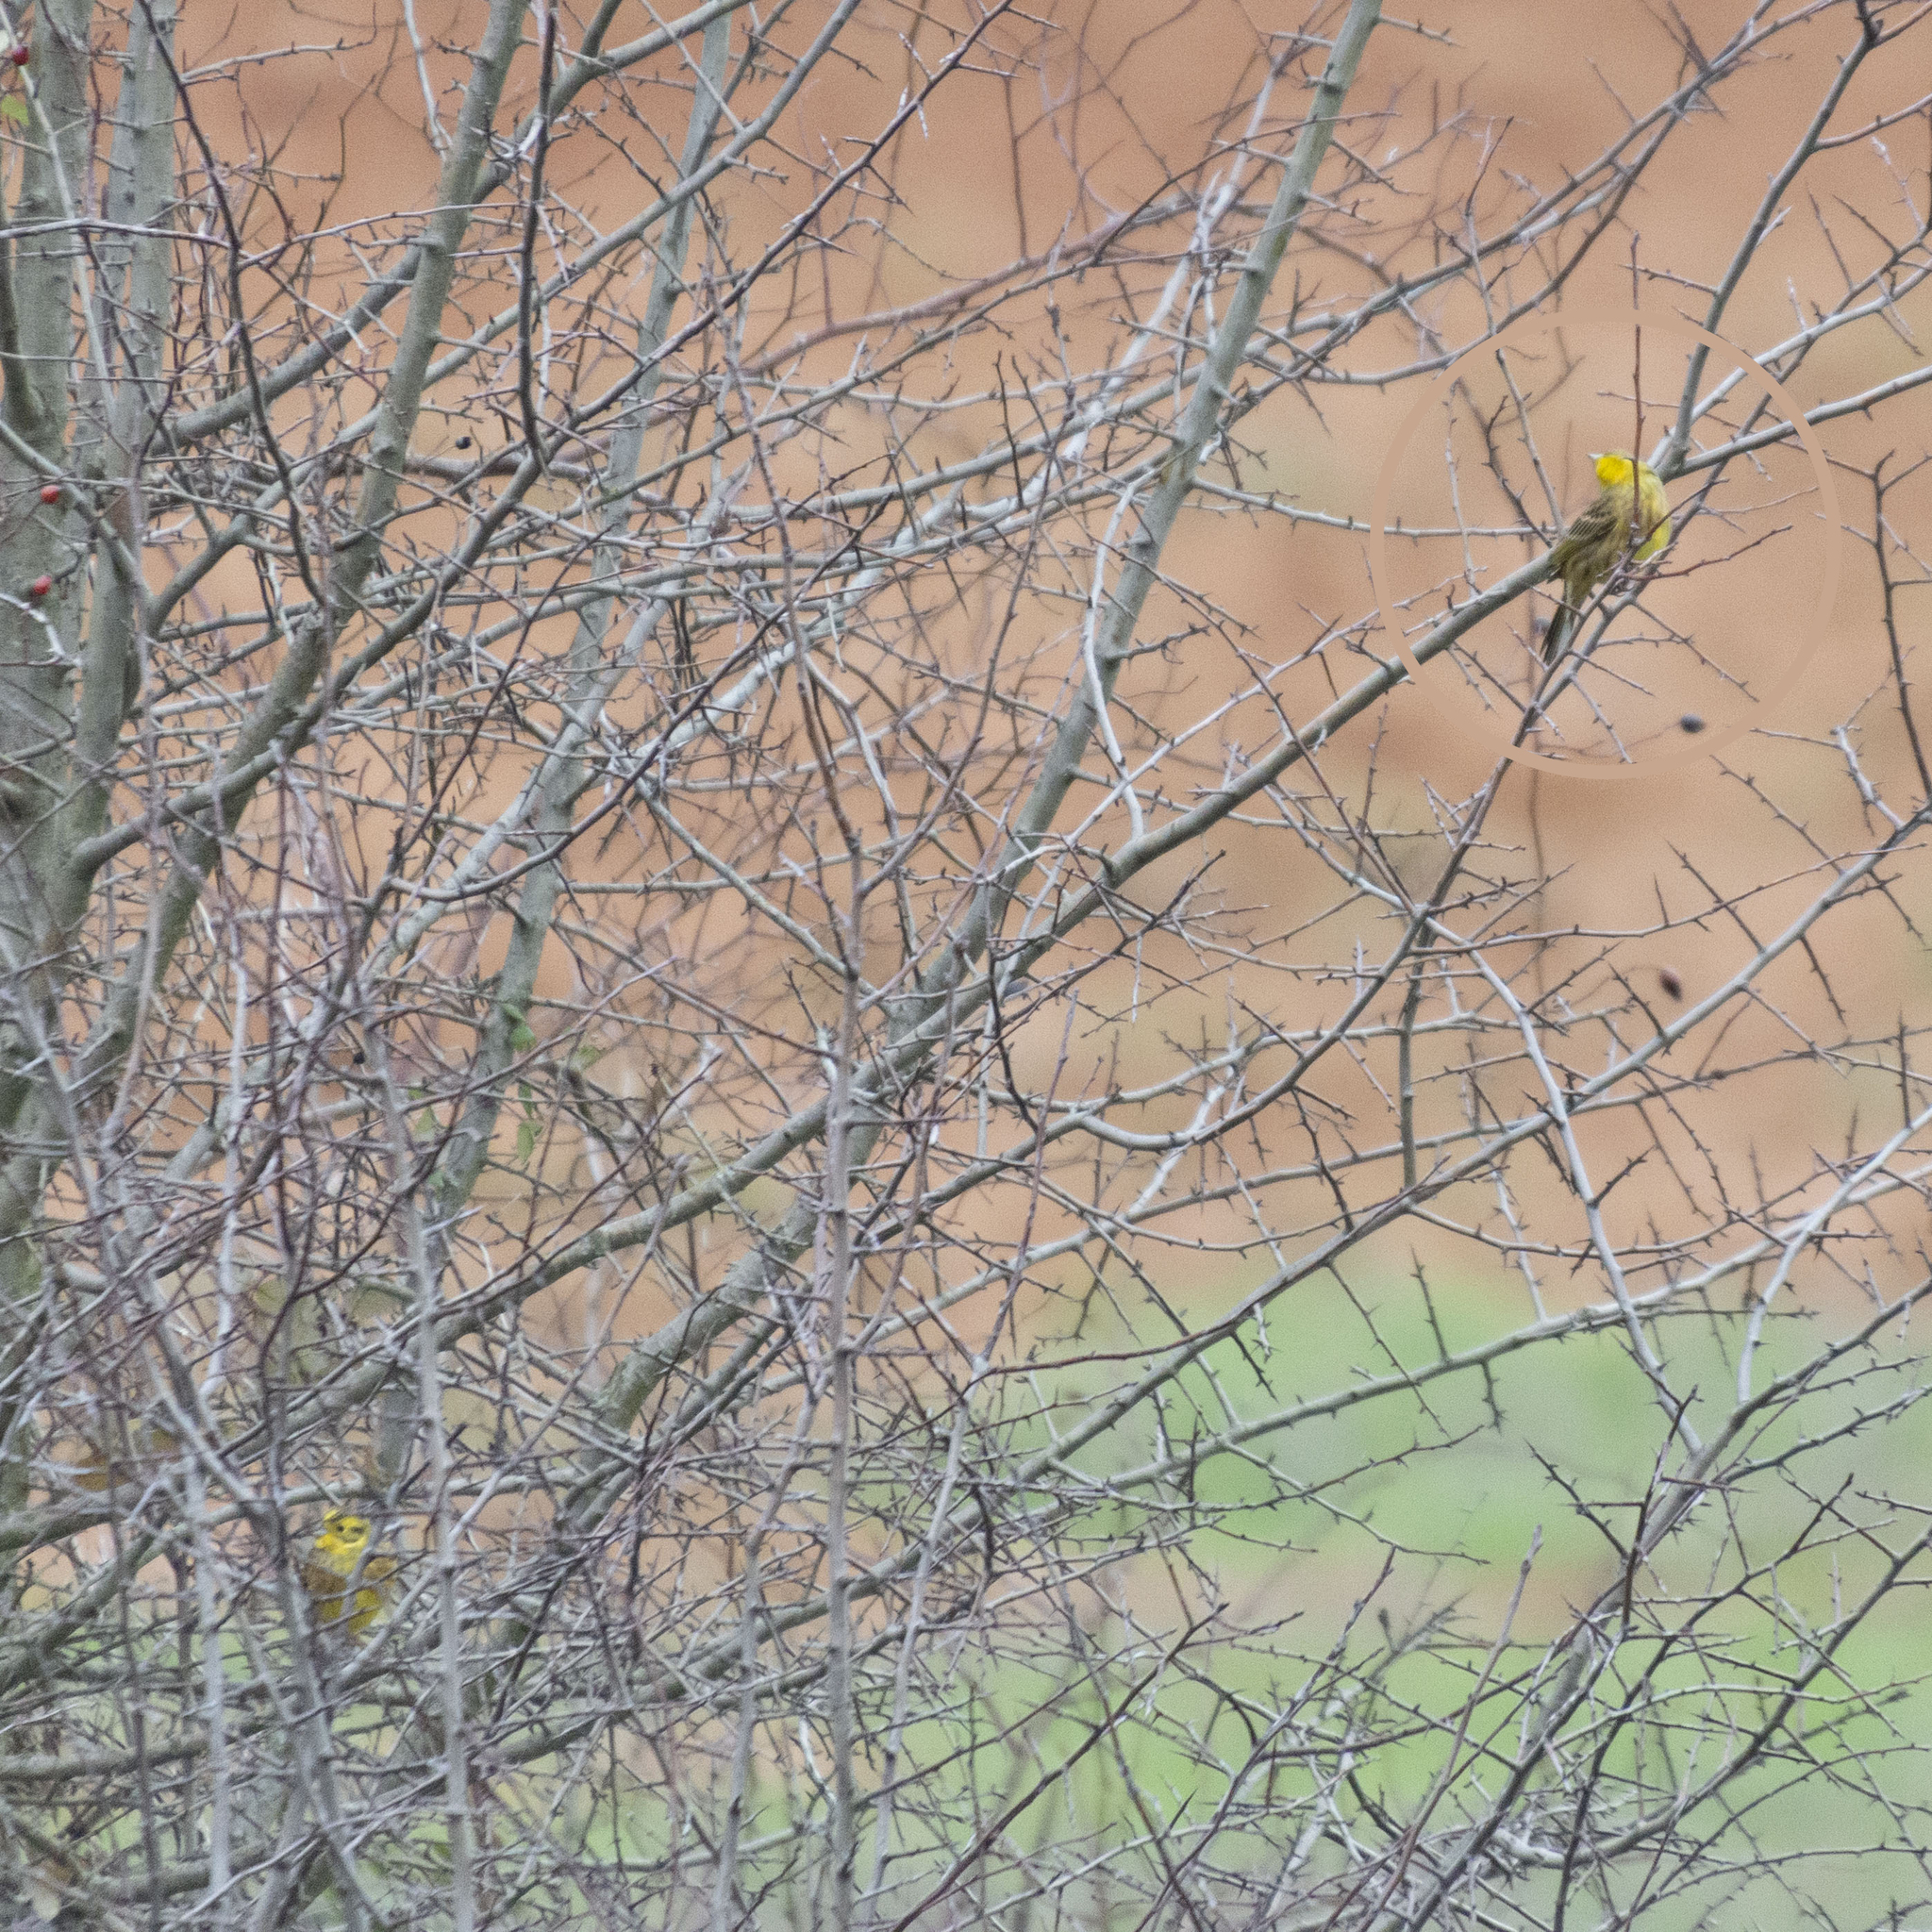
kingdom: Animalia
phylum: Chordata
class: Aves
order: Passeriformes
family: Emberizidae
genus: Emberiza
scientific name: Emberiza citrinella
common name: Yellowhammer
